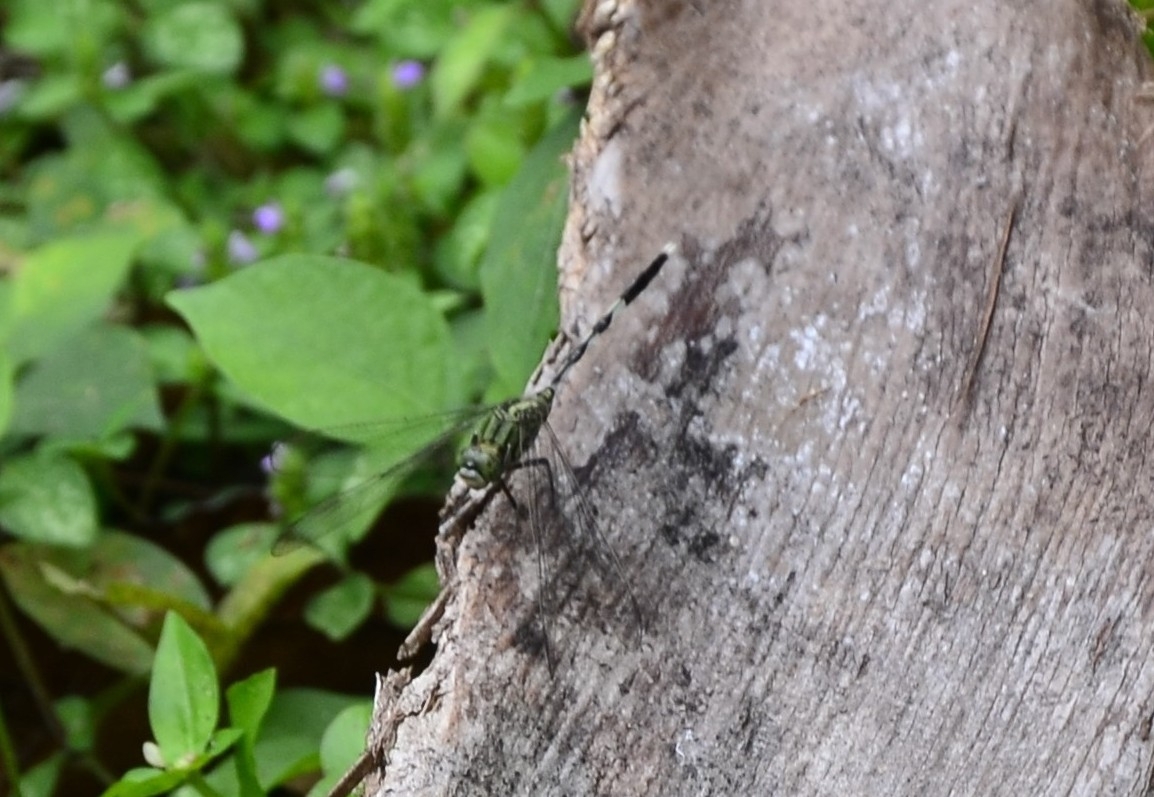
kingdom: Animalia
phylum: Arthropoda
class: Insecta
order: Odonata
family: Libellulidae
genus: Orthetrum
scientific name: Orthetrum sabina
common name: Slender skimmer
